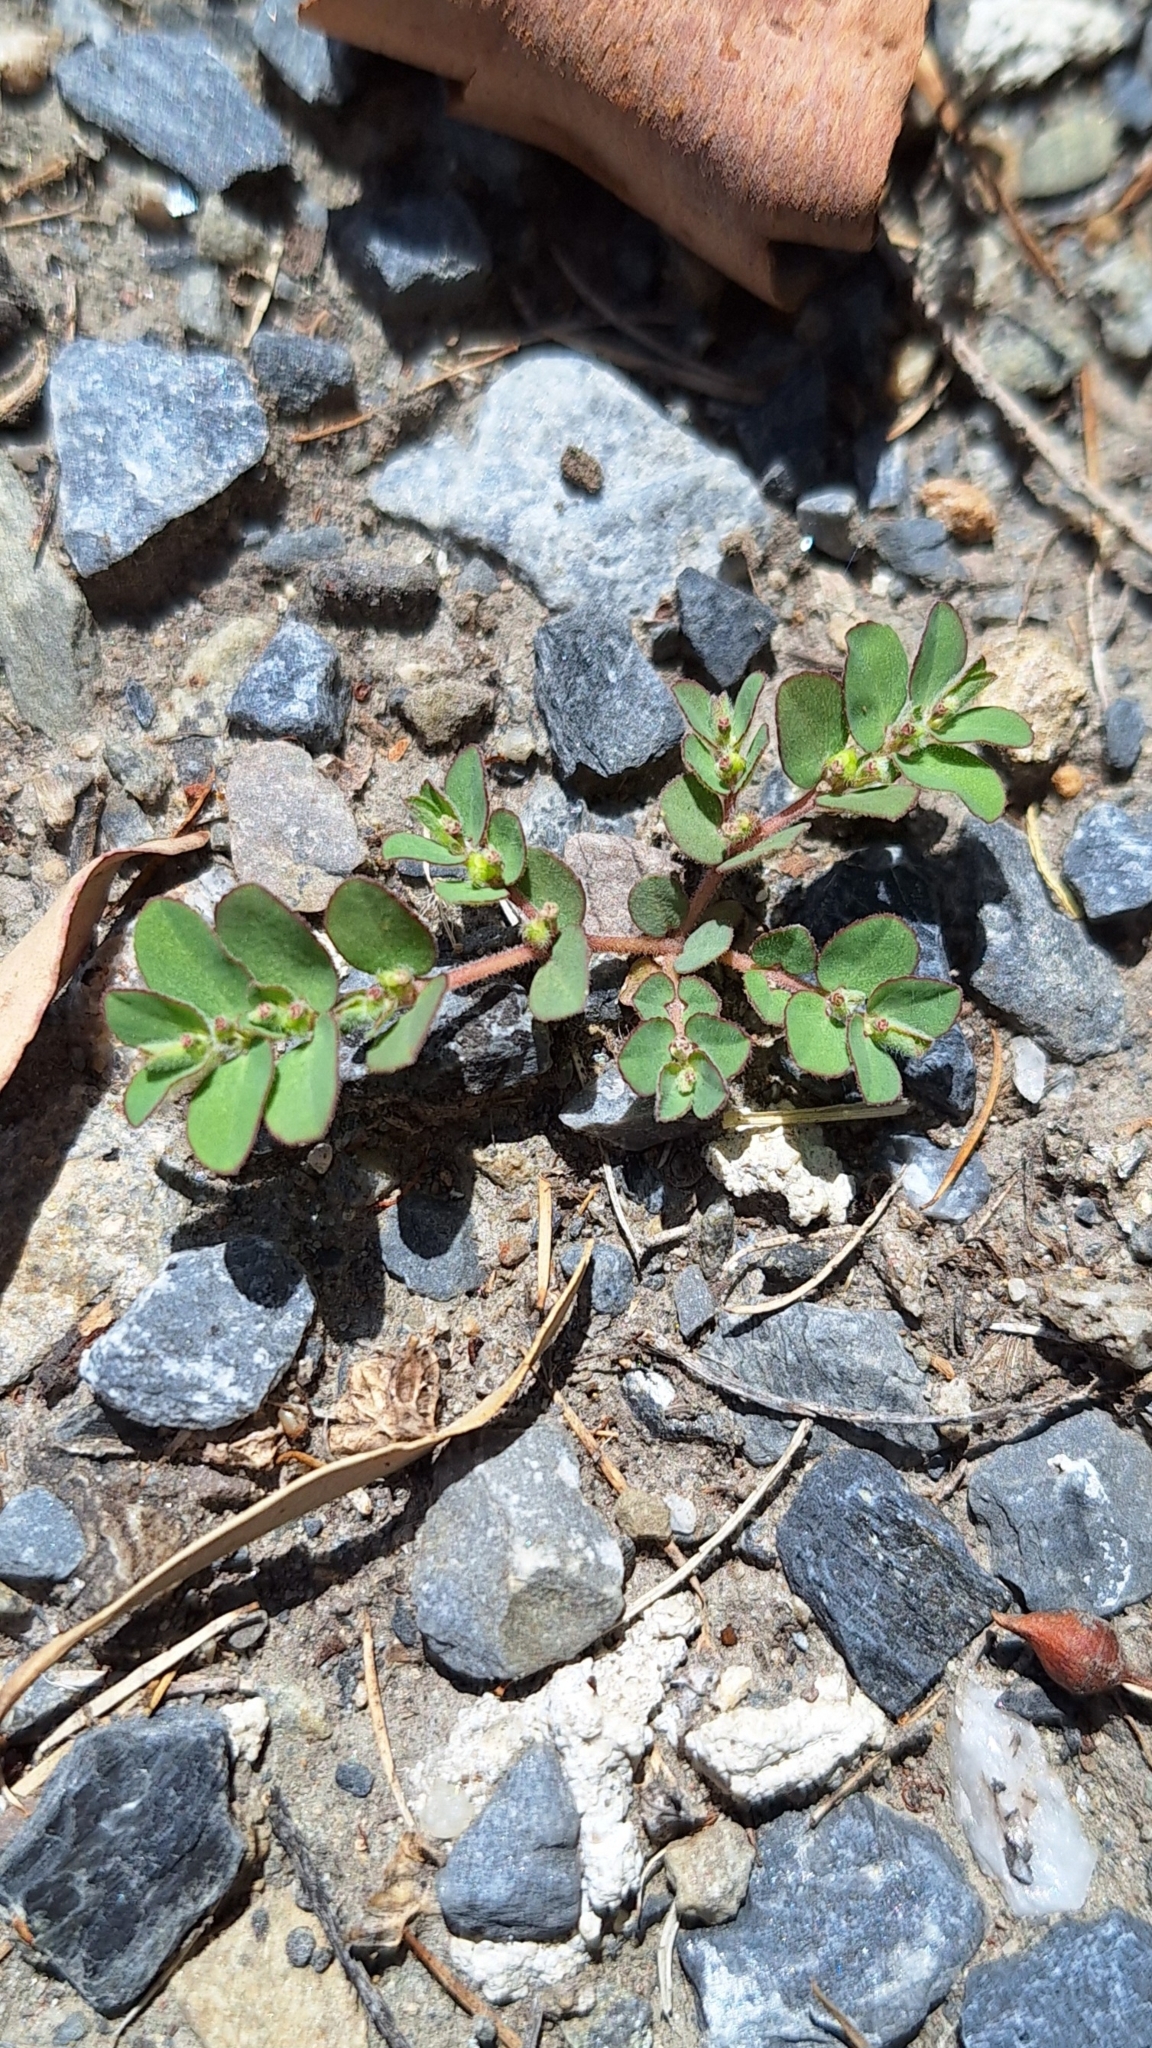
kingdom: Plantae
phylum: Tracheophyta
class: Magnoliopsida
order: Malpighiales
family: Euphorbiaceae
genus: Euphorbia
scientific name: Euphorbia prostrata
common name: Prostrate sandmat
